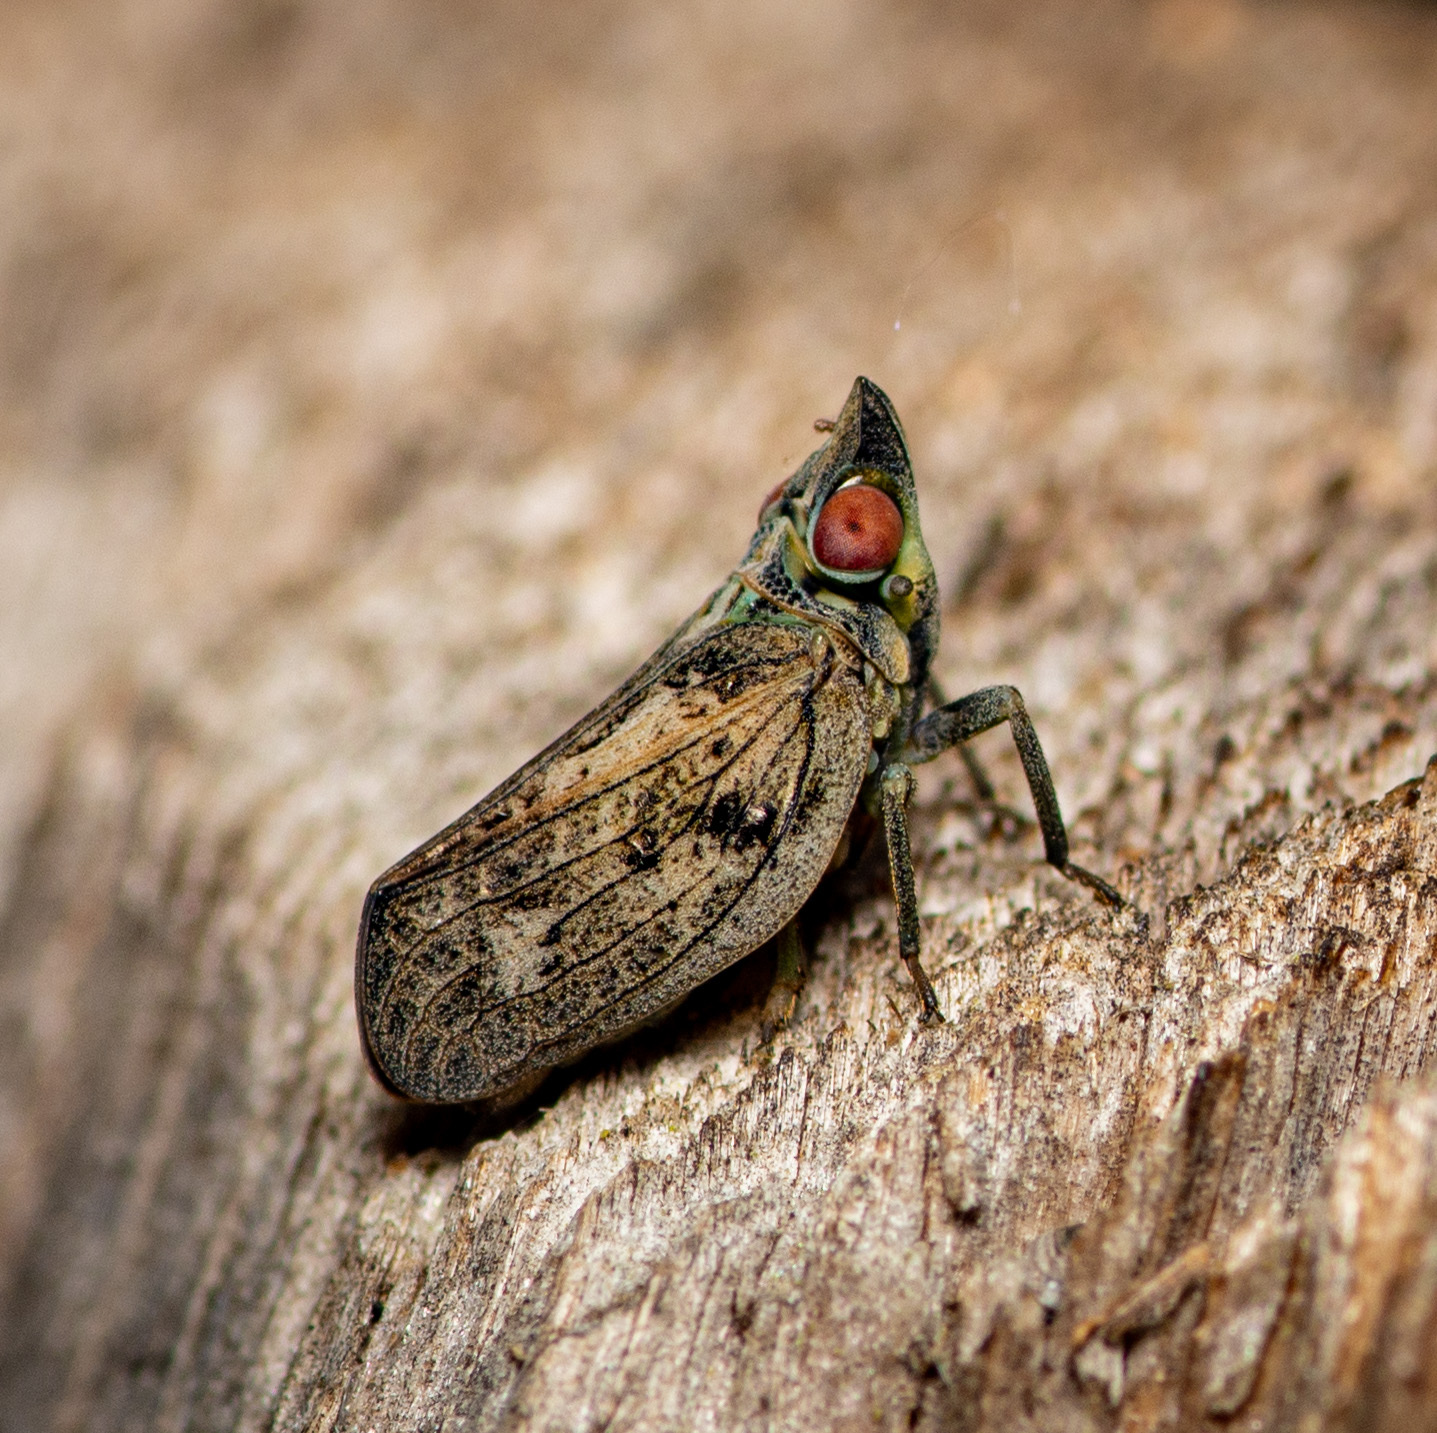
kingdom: Animalia
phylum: Arthropoda
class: Insecta
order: Hemiptera
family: Issidae
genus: Fowlerium
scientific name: Fowlerium acutum
